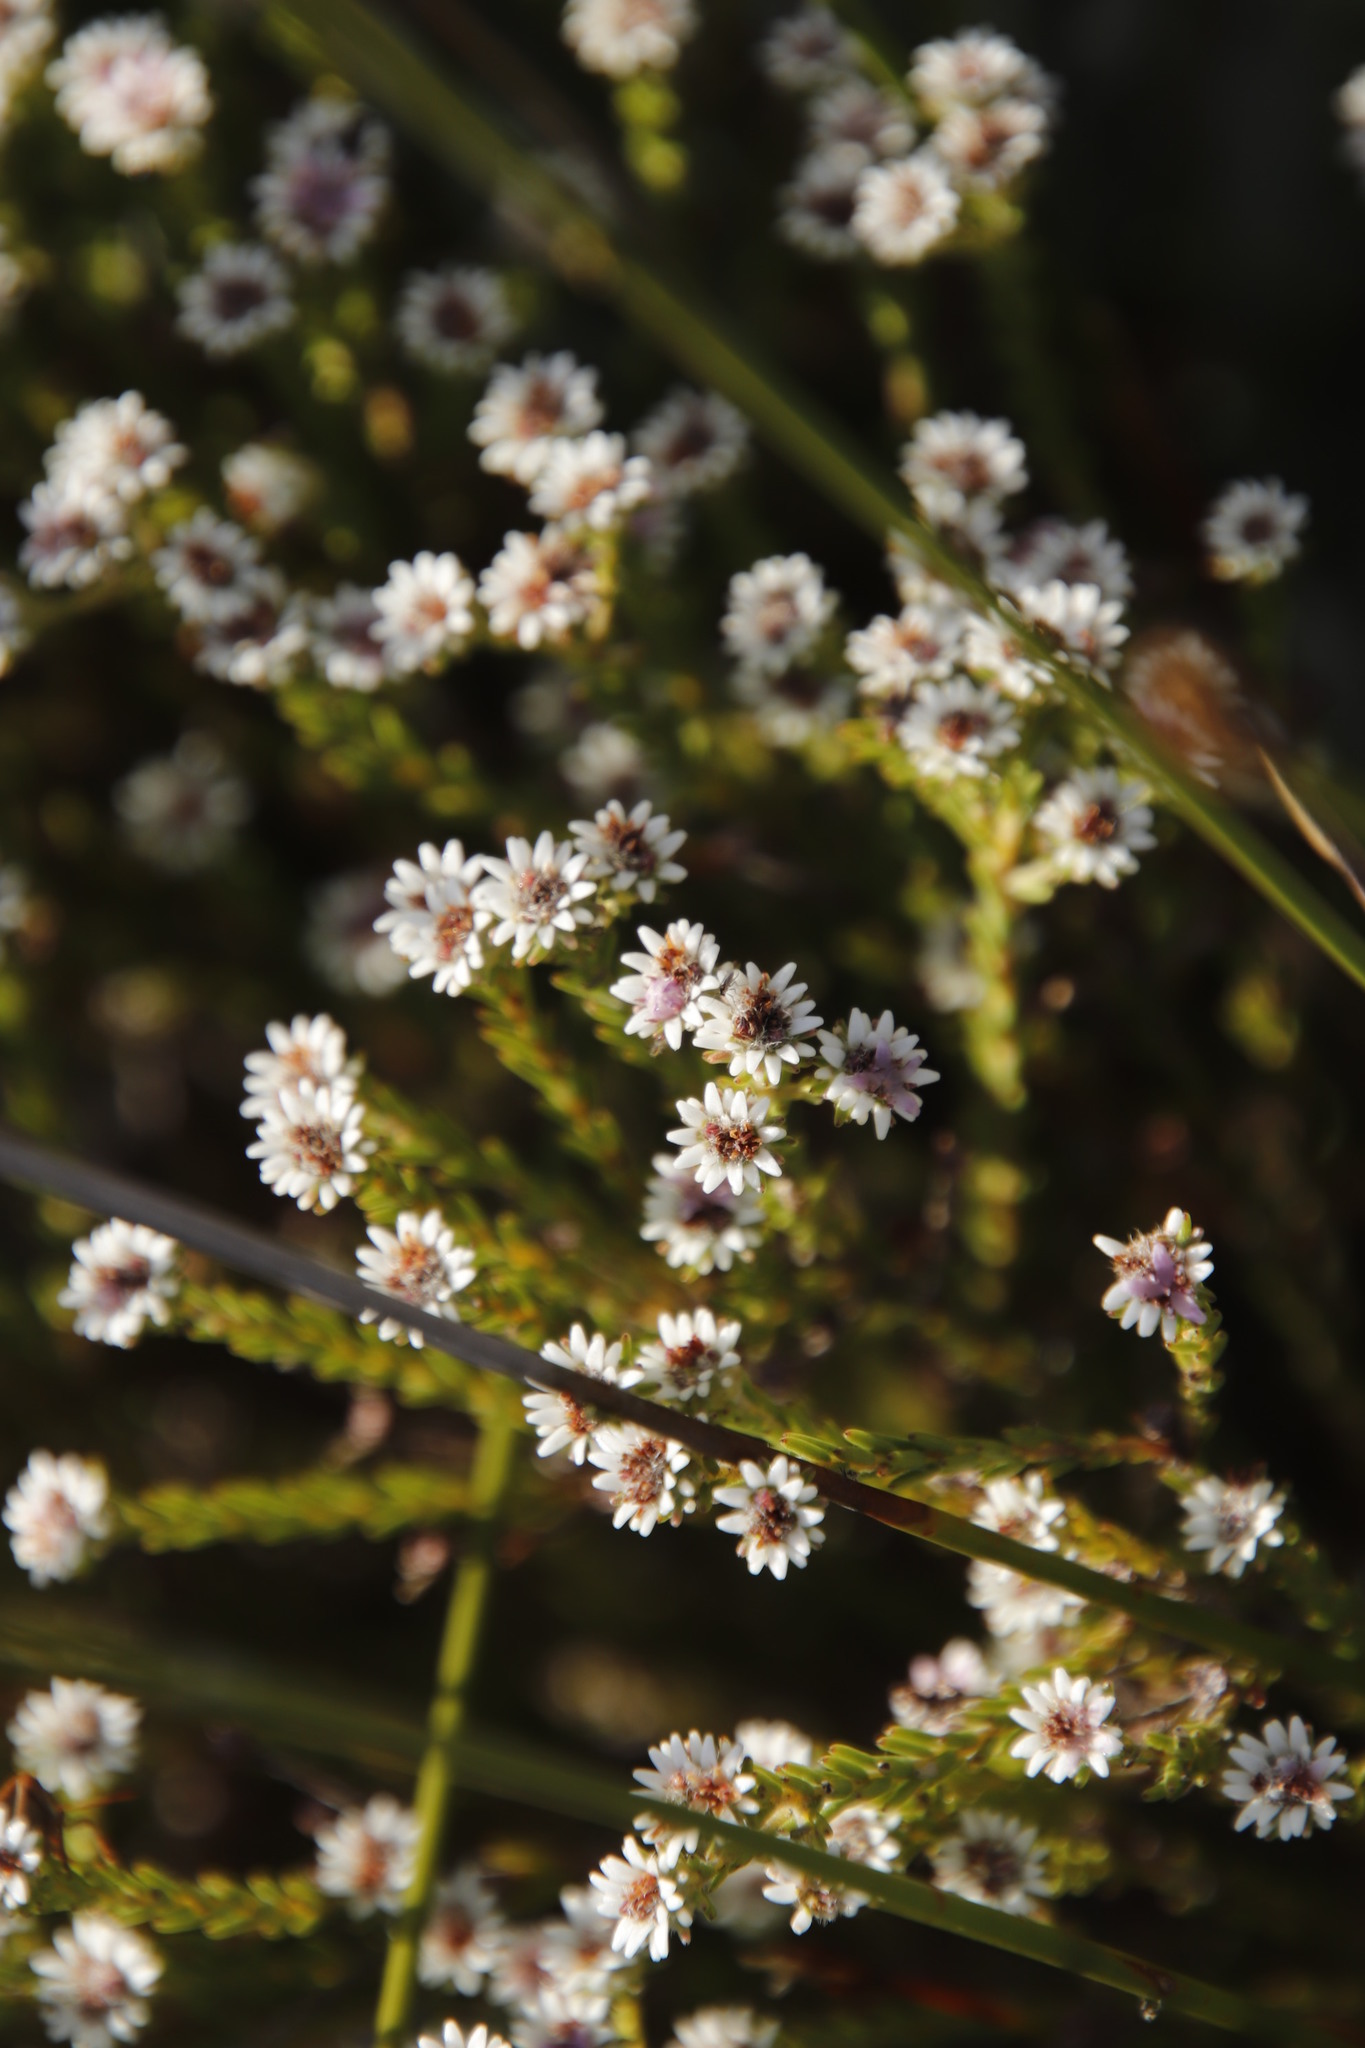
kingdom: Plantae
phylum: Tracheophyta
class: Magnoliopsida
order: Bruniales
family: Bruniaceae
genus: Staavia
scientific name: Staavia radiata
